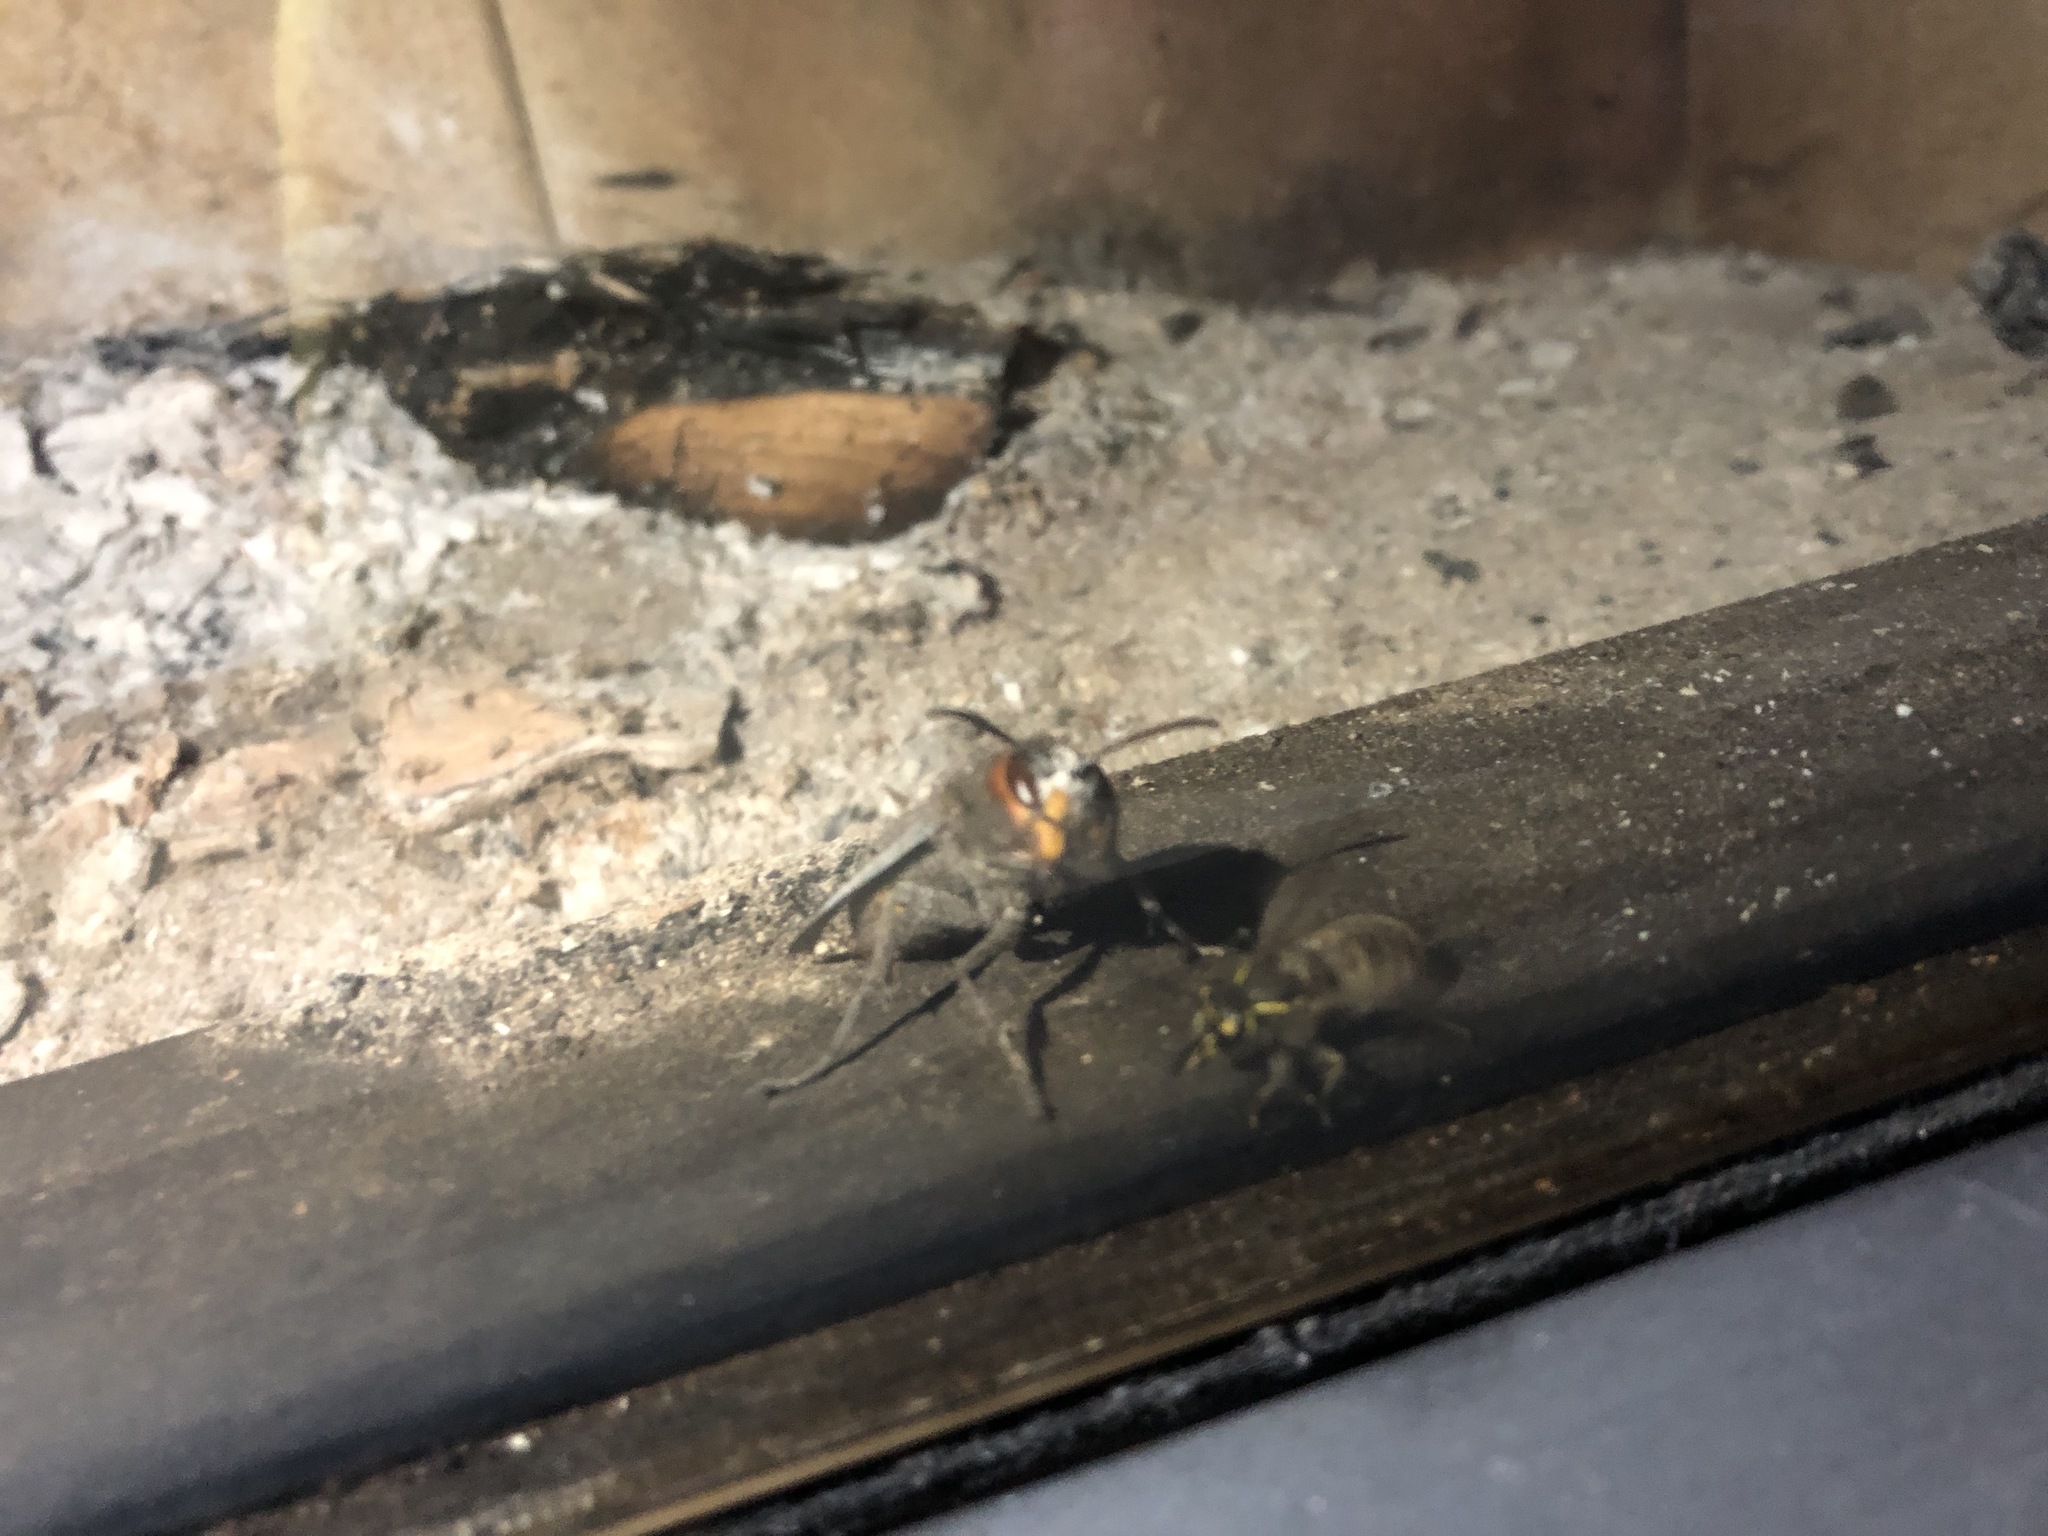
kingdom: Animalia
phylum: Arthropoda
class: Insecta
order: Hymenoptera
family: Vespidae
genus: Vespa
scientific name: Vespa crabro
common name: Hornet
